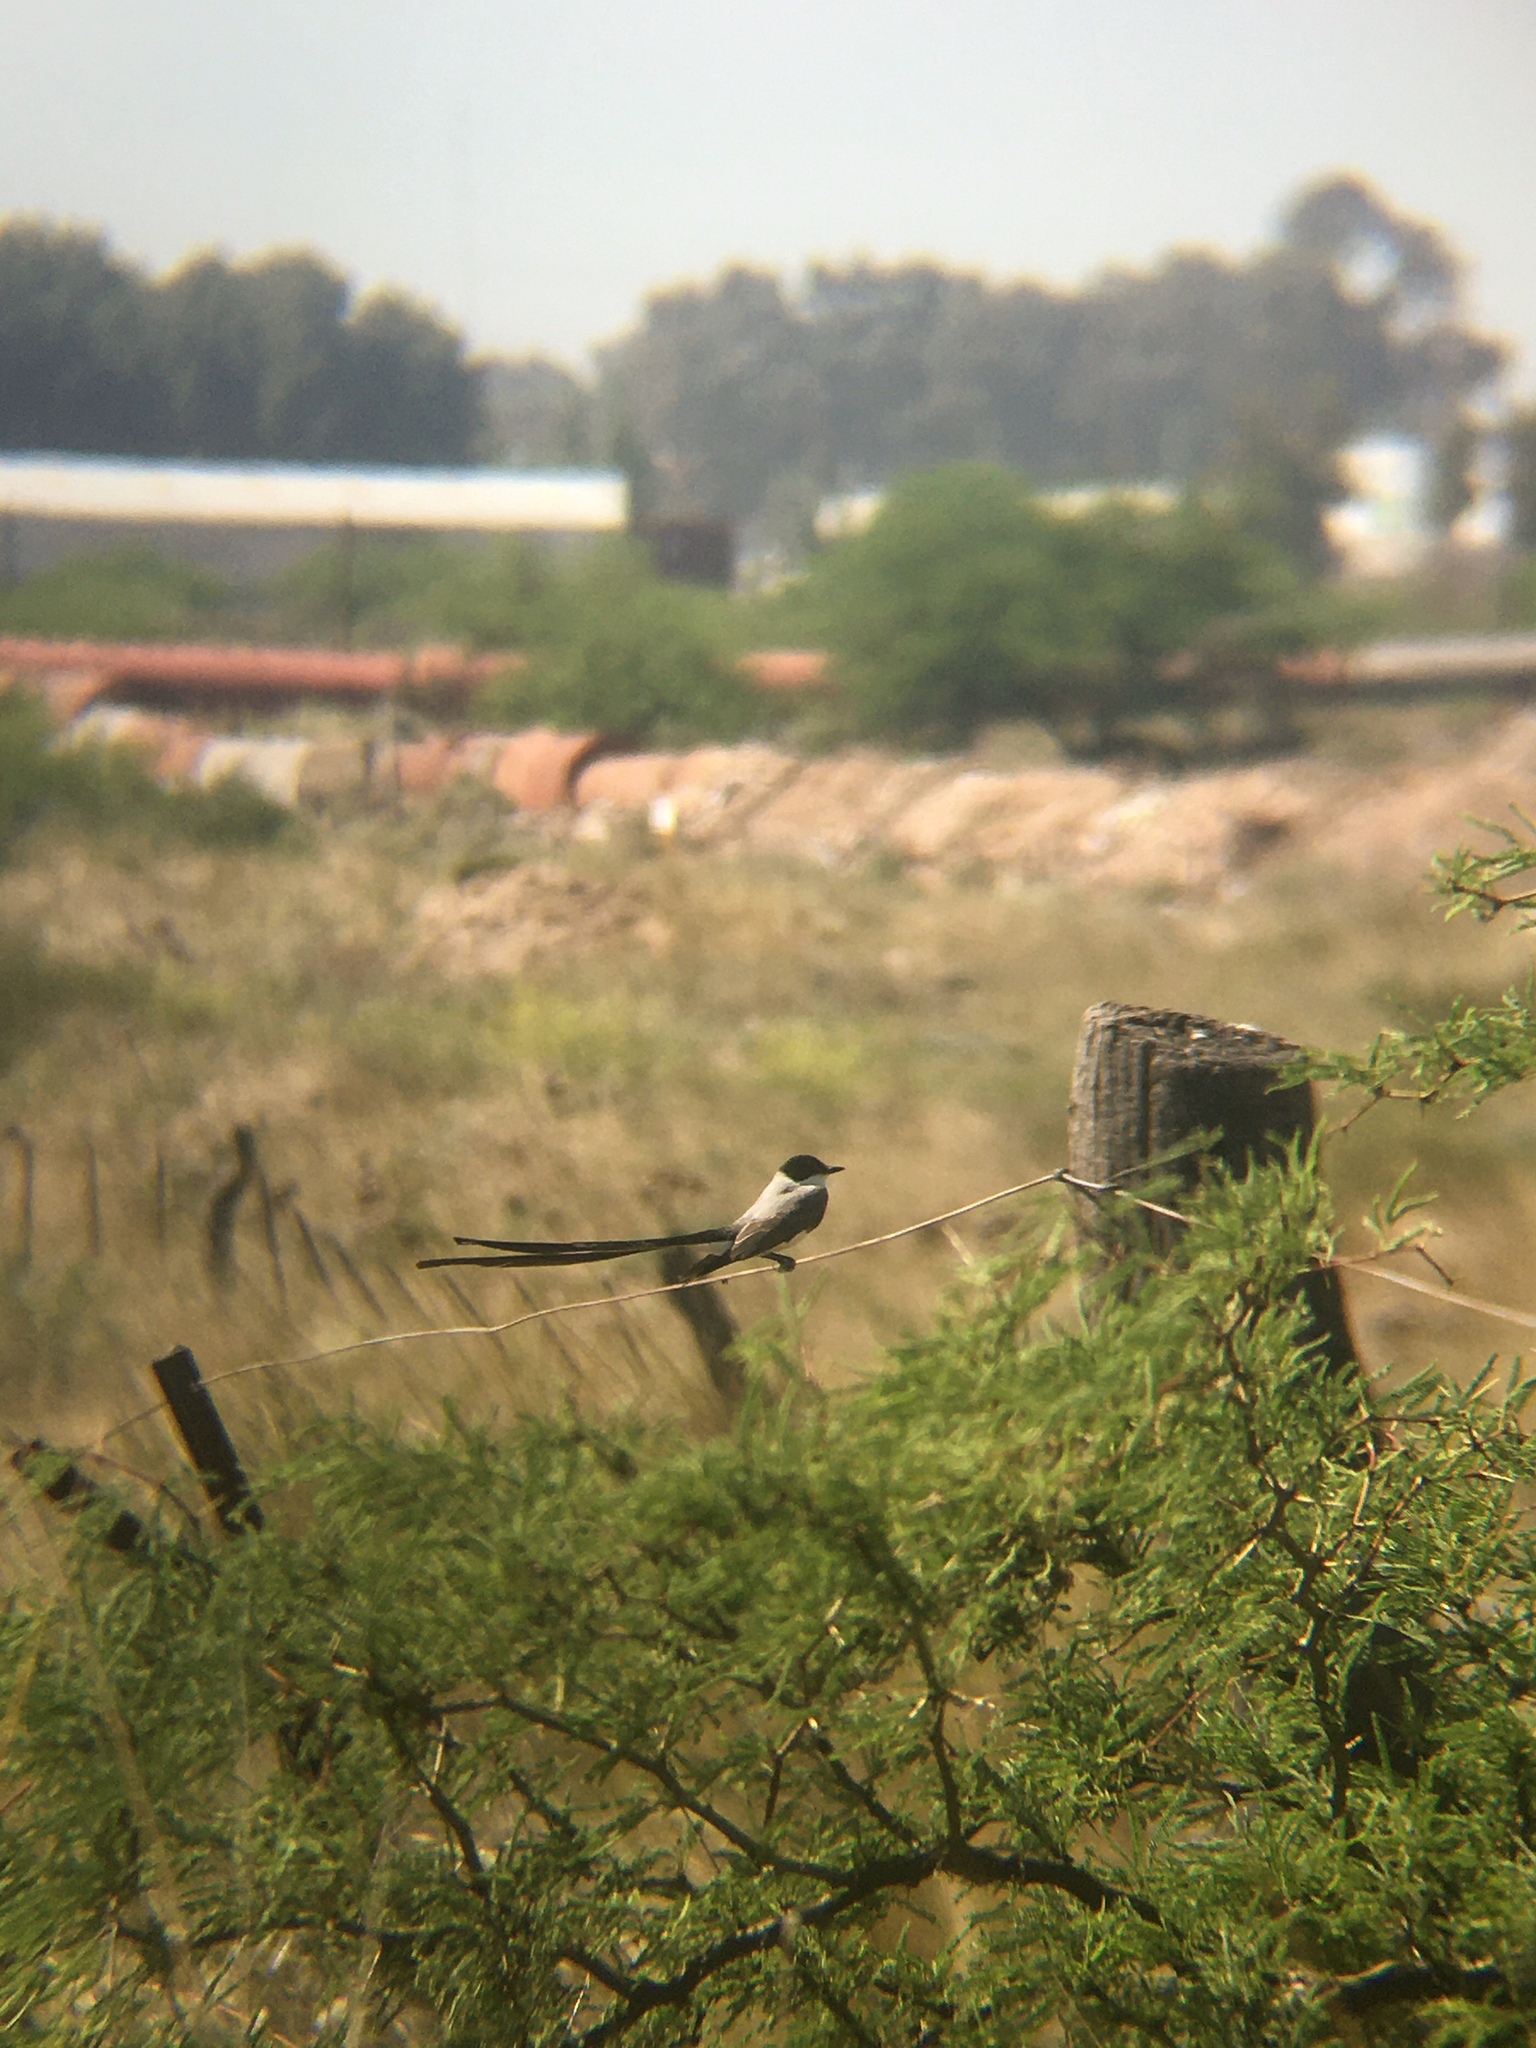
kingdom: Animalia
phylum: Chordata
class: Aves
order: Passeriformes
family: Tyrannidae
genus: Tyrannus
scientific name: Tyrannus savana
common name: Fork-tailed flycatcher
